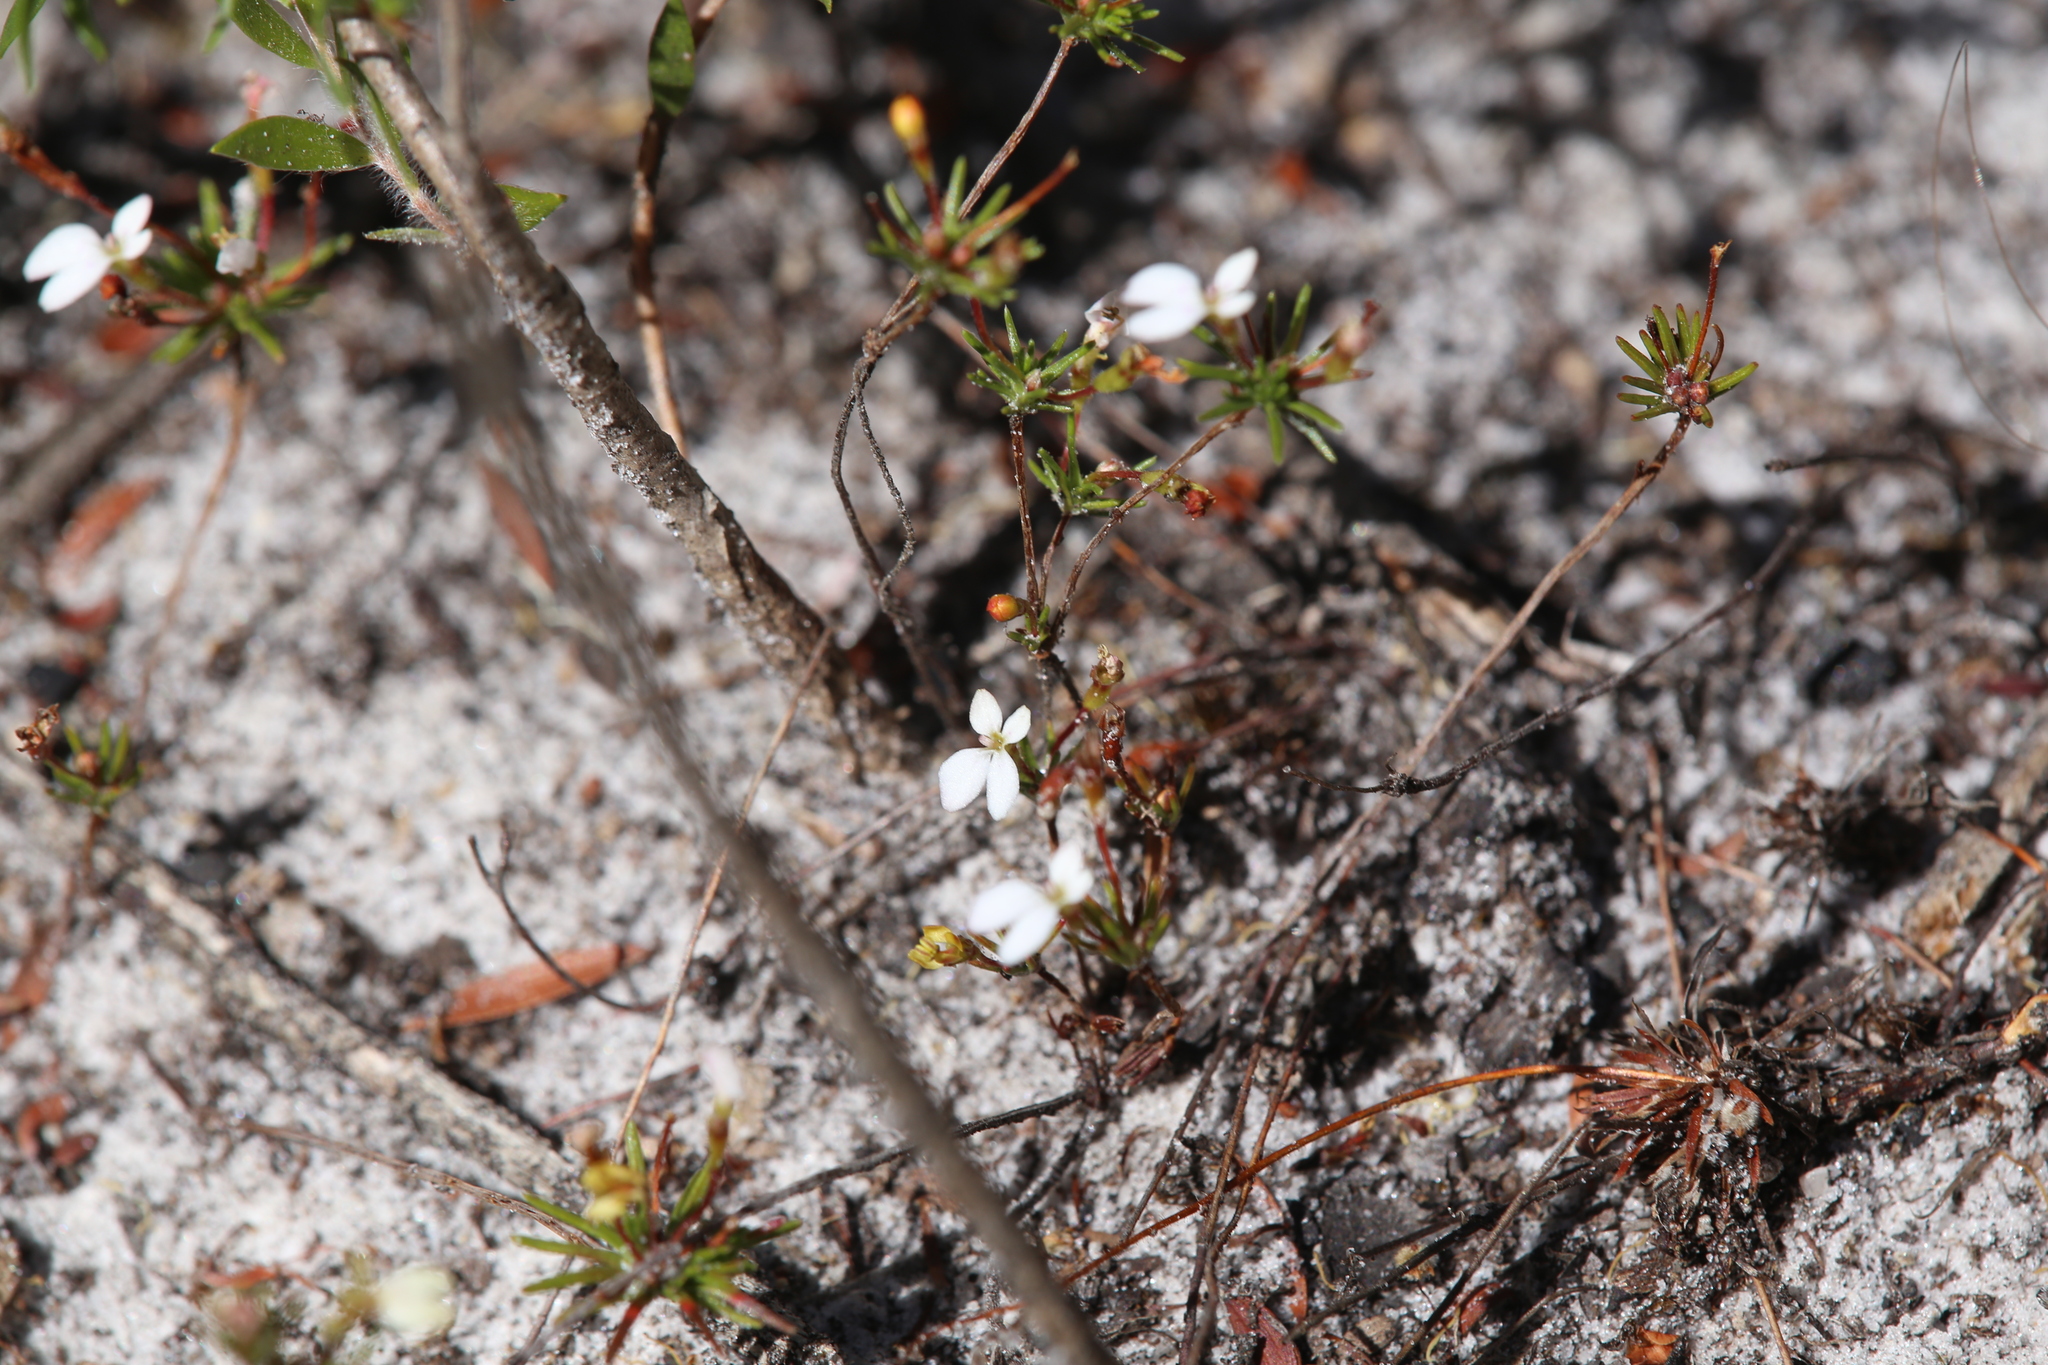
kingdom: Plantae
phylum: Tracheophyta
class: Magnoliopsida
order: Asterales
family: Stylidiaceae
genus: Stylidium
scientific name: Stylidium repens
